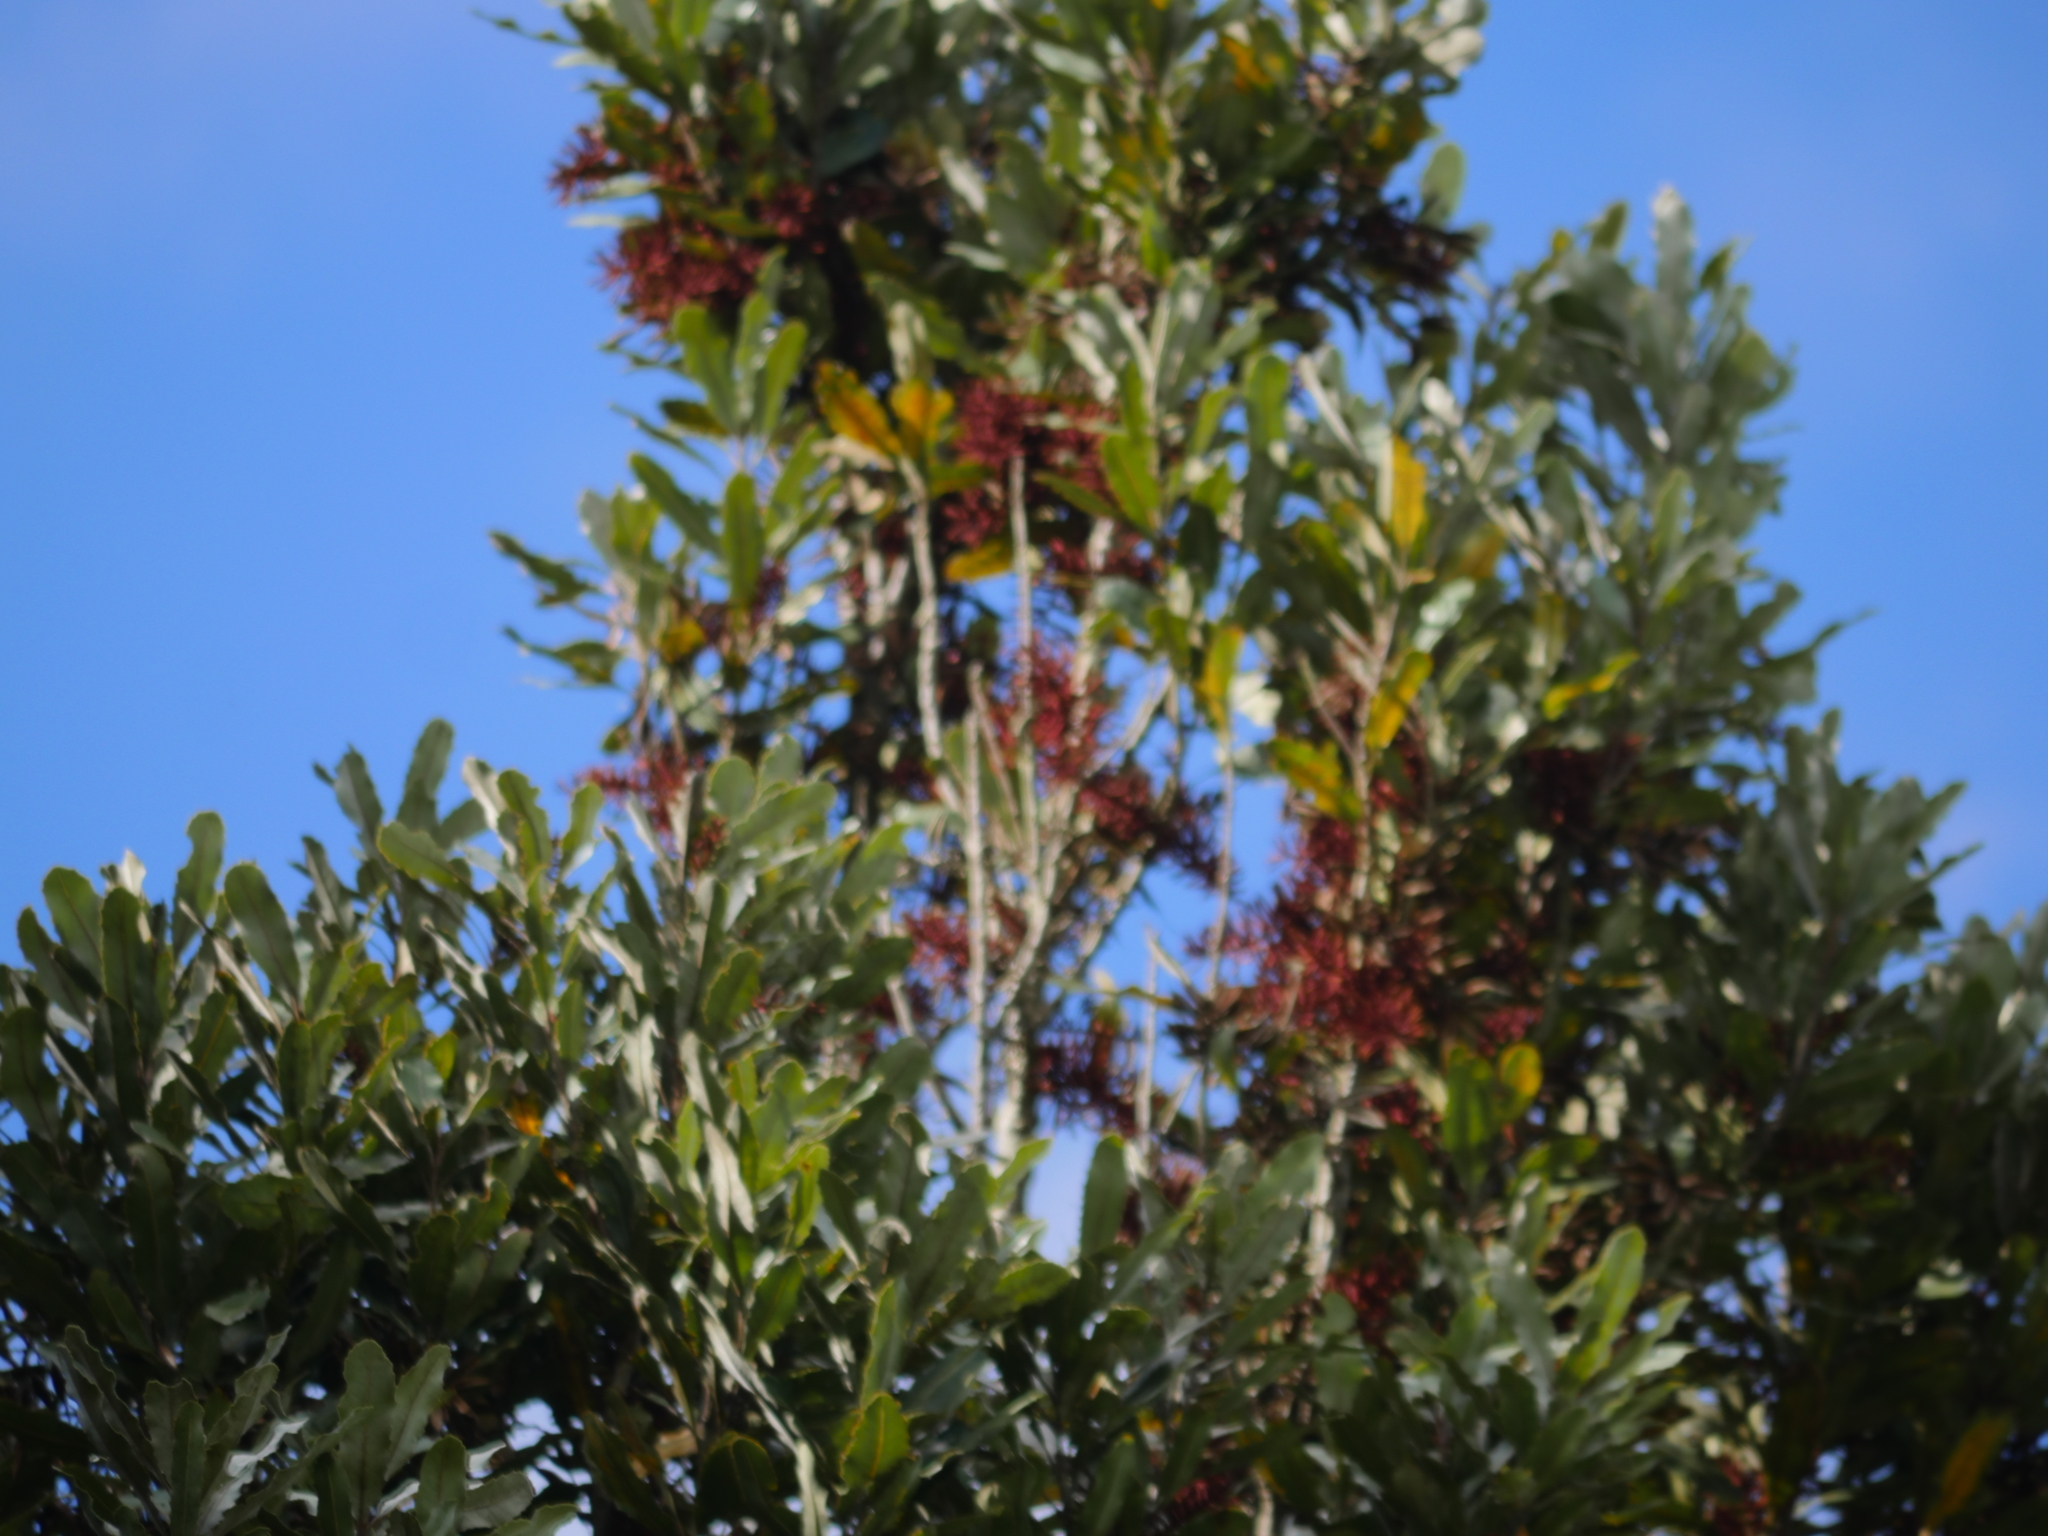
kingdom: Plantae
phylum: Tracheophyta
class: Magnoliopsida
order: Proteales
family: Proteaceae
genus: Knightia
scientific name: Knightia excelsa
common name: New zealand-honeysuckle
